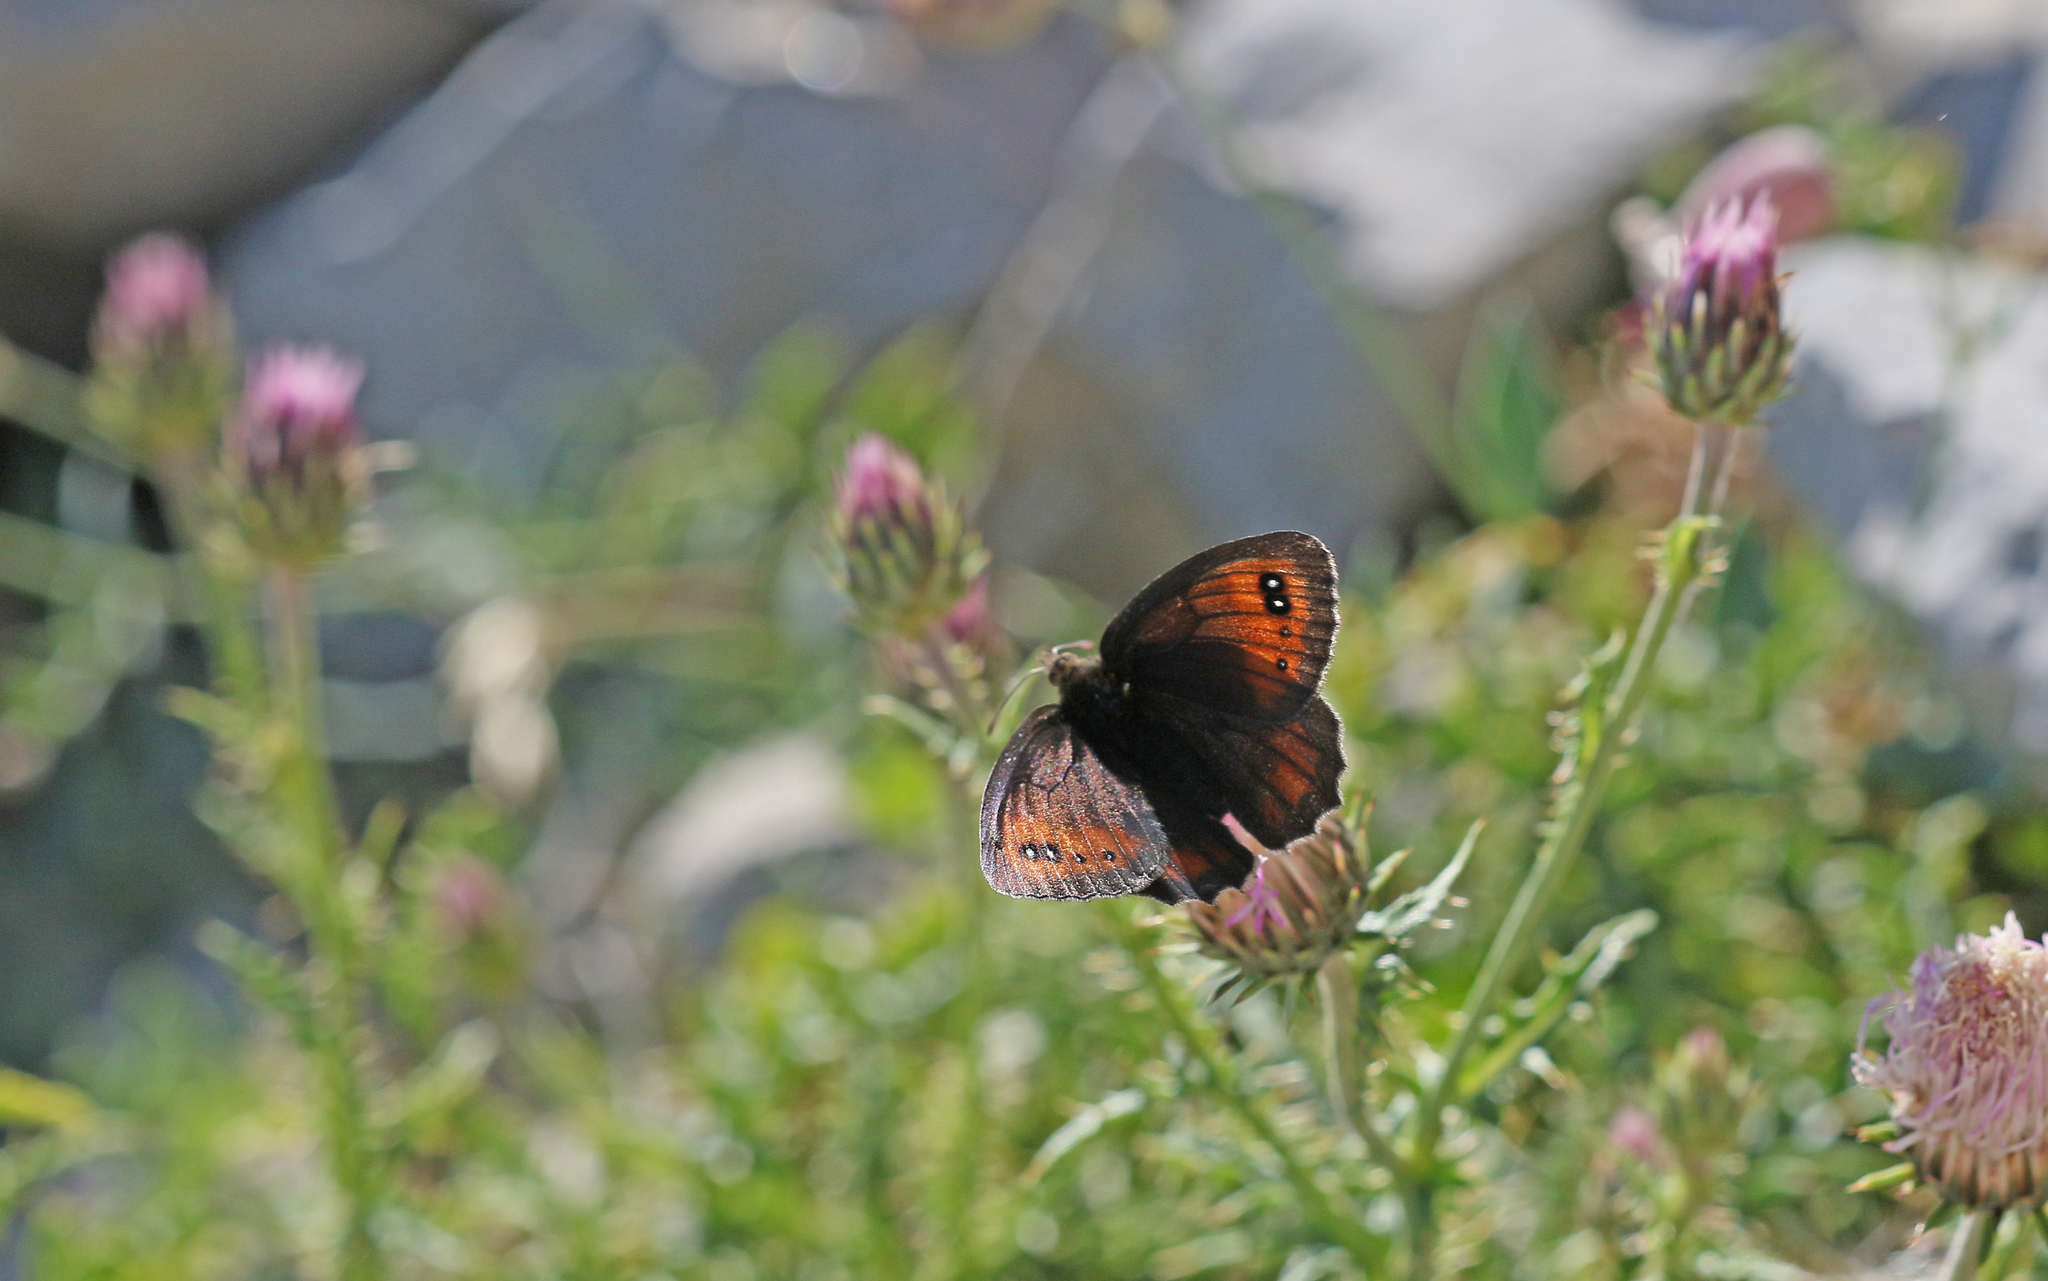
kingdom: Animalia
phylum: Arthropoda
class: Insecta
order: Lepidoptera
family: Nymphalidae
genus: Erebia
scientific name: Erebia scipio
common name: Larche ringlet
